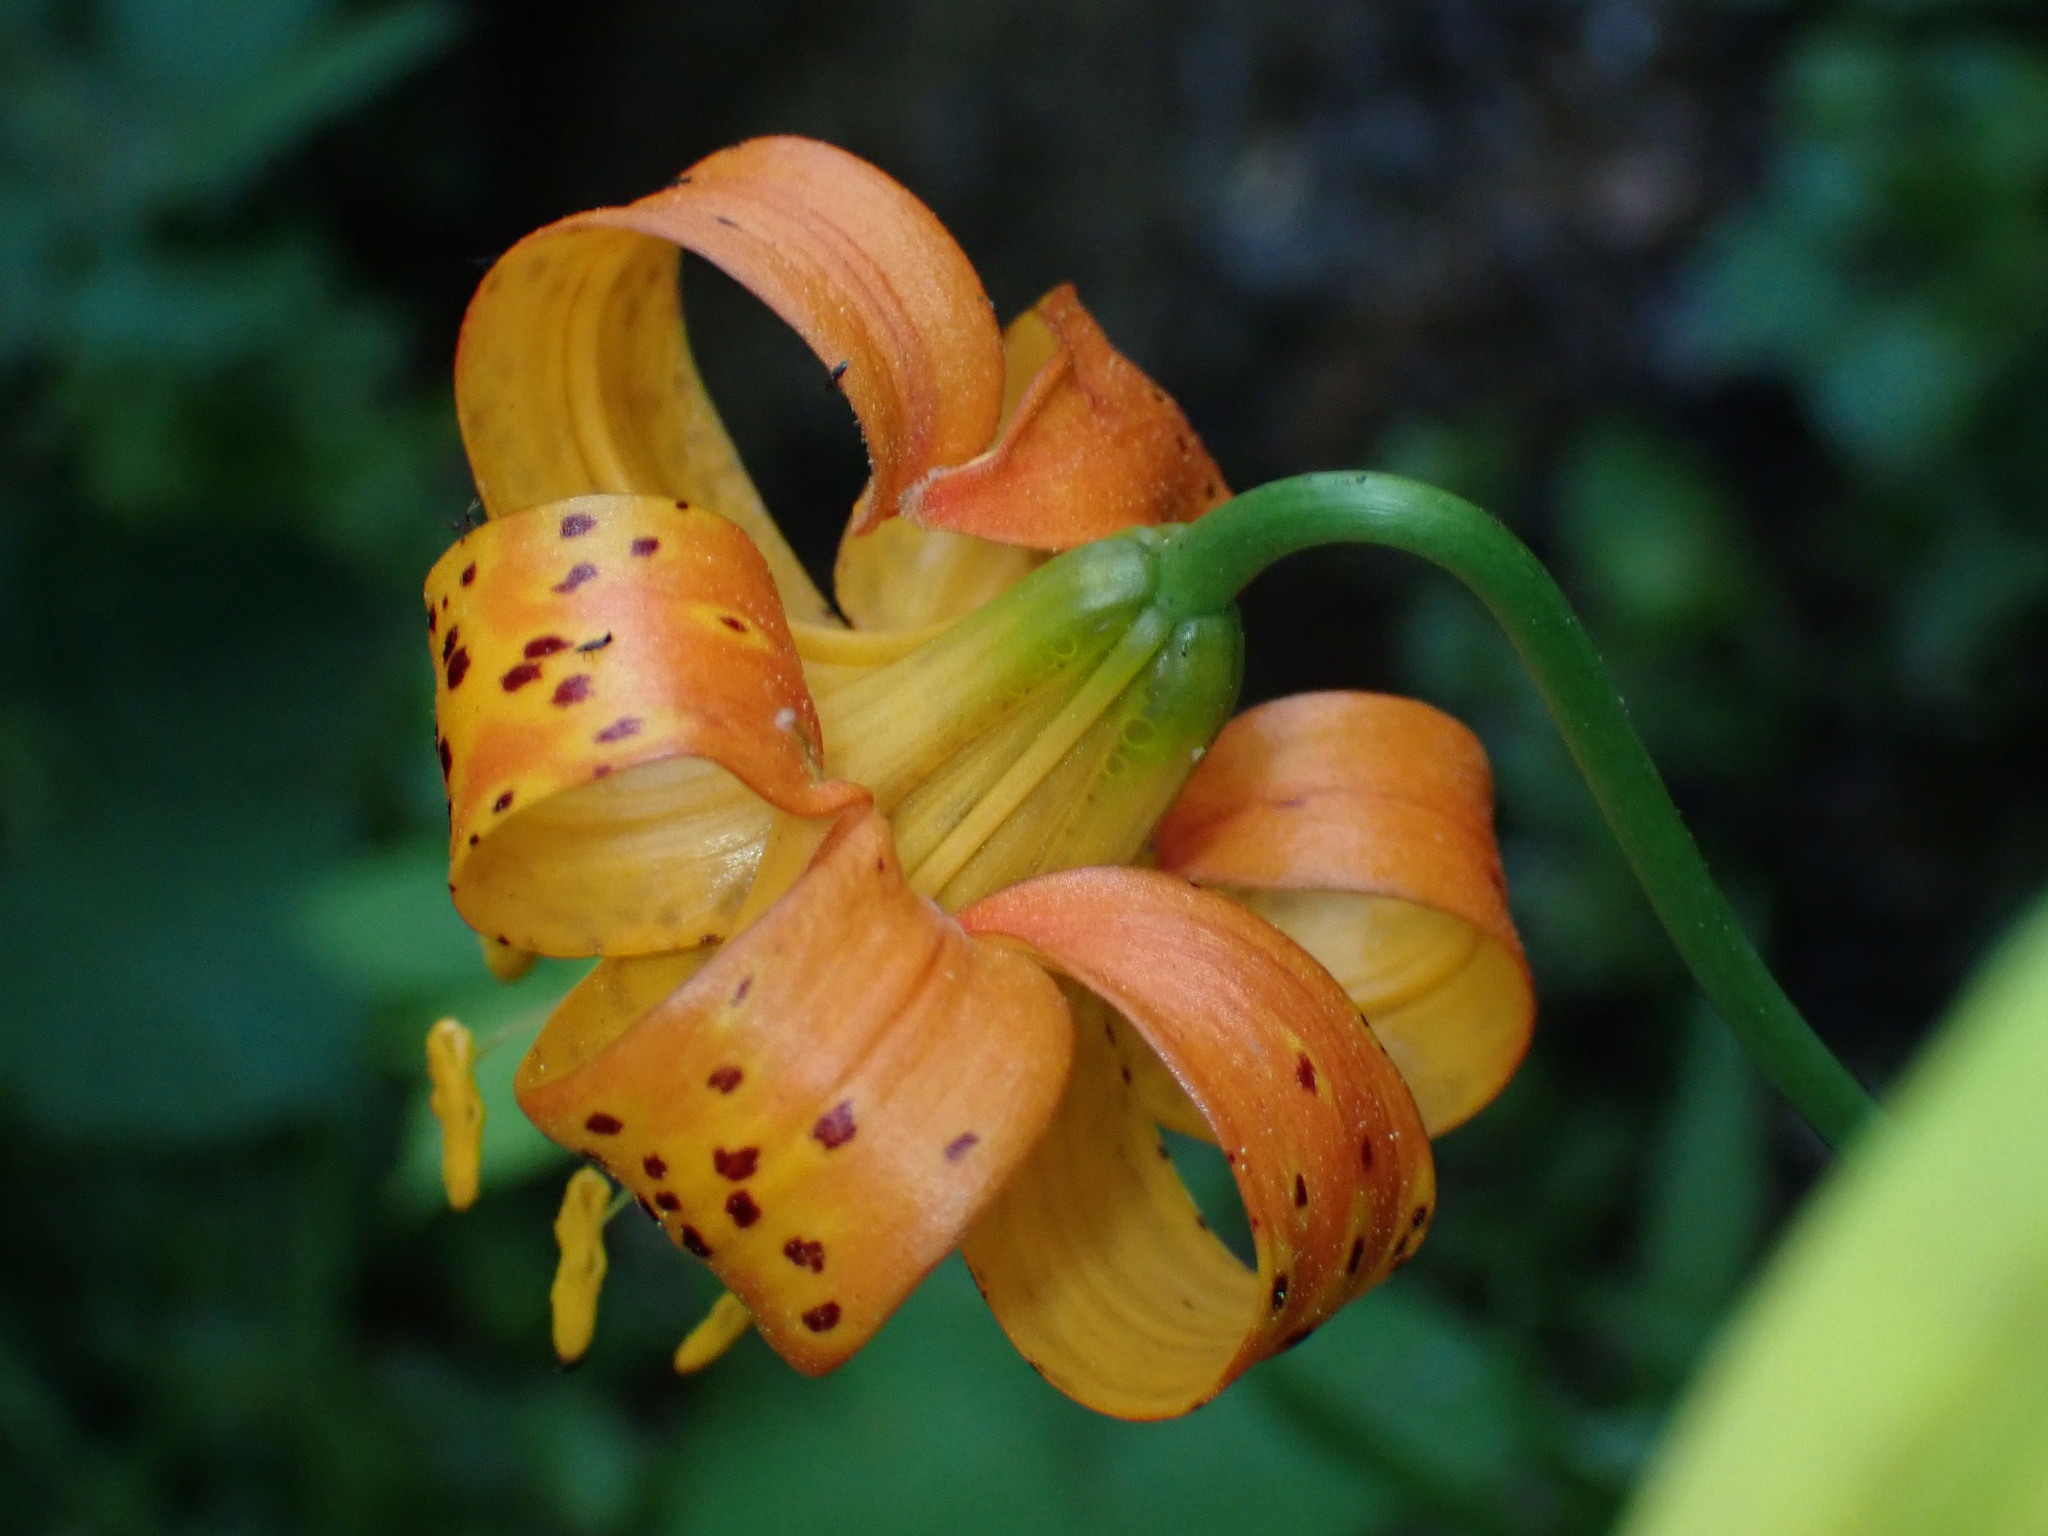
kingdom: Plantae
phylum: Tracheophyta
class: Liliopsida
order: Liliales
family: Liliaceae
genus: Lilium
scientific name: Lilium pardalinum
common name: Panther lily
